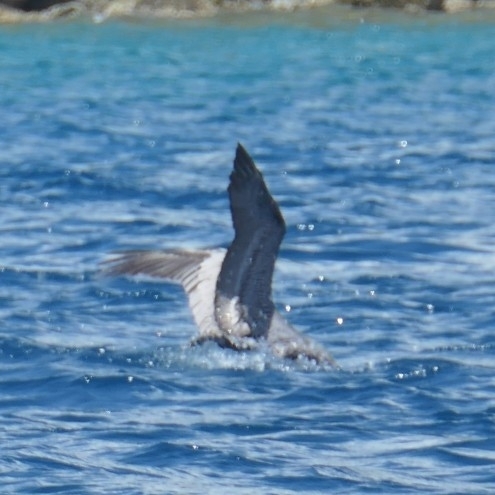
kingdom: Animalia
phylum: Chordata
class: Aves
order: Pelecaniformes
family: Pelecanidae
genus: Pelecanus
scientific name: Pelecanus occidentalis
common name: Brown pelican
